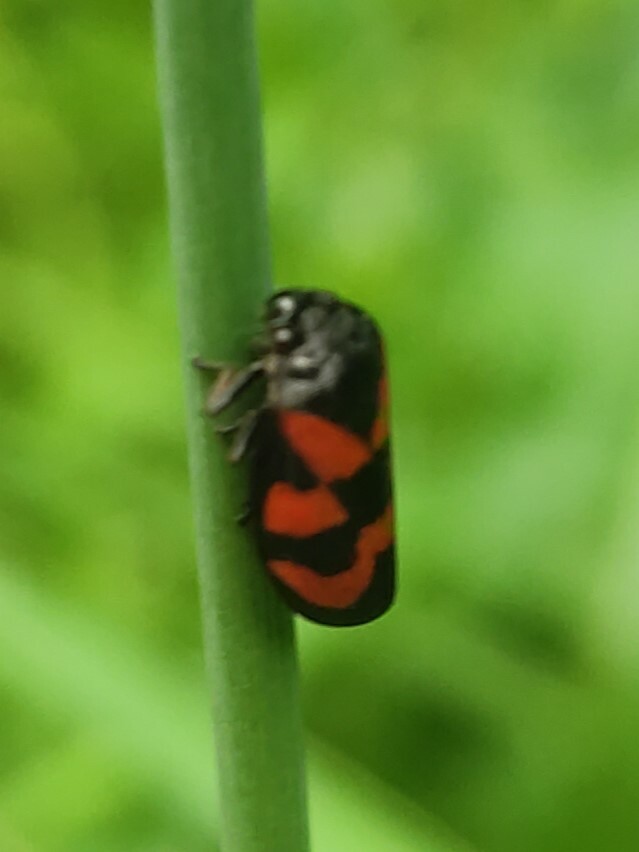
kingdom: Animalia
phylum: Arthropoda
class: Insecta
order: Hemiptera
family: Cercopidae
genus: Cercopis
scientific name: Cercopis vulnerata
